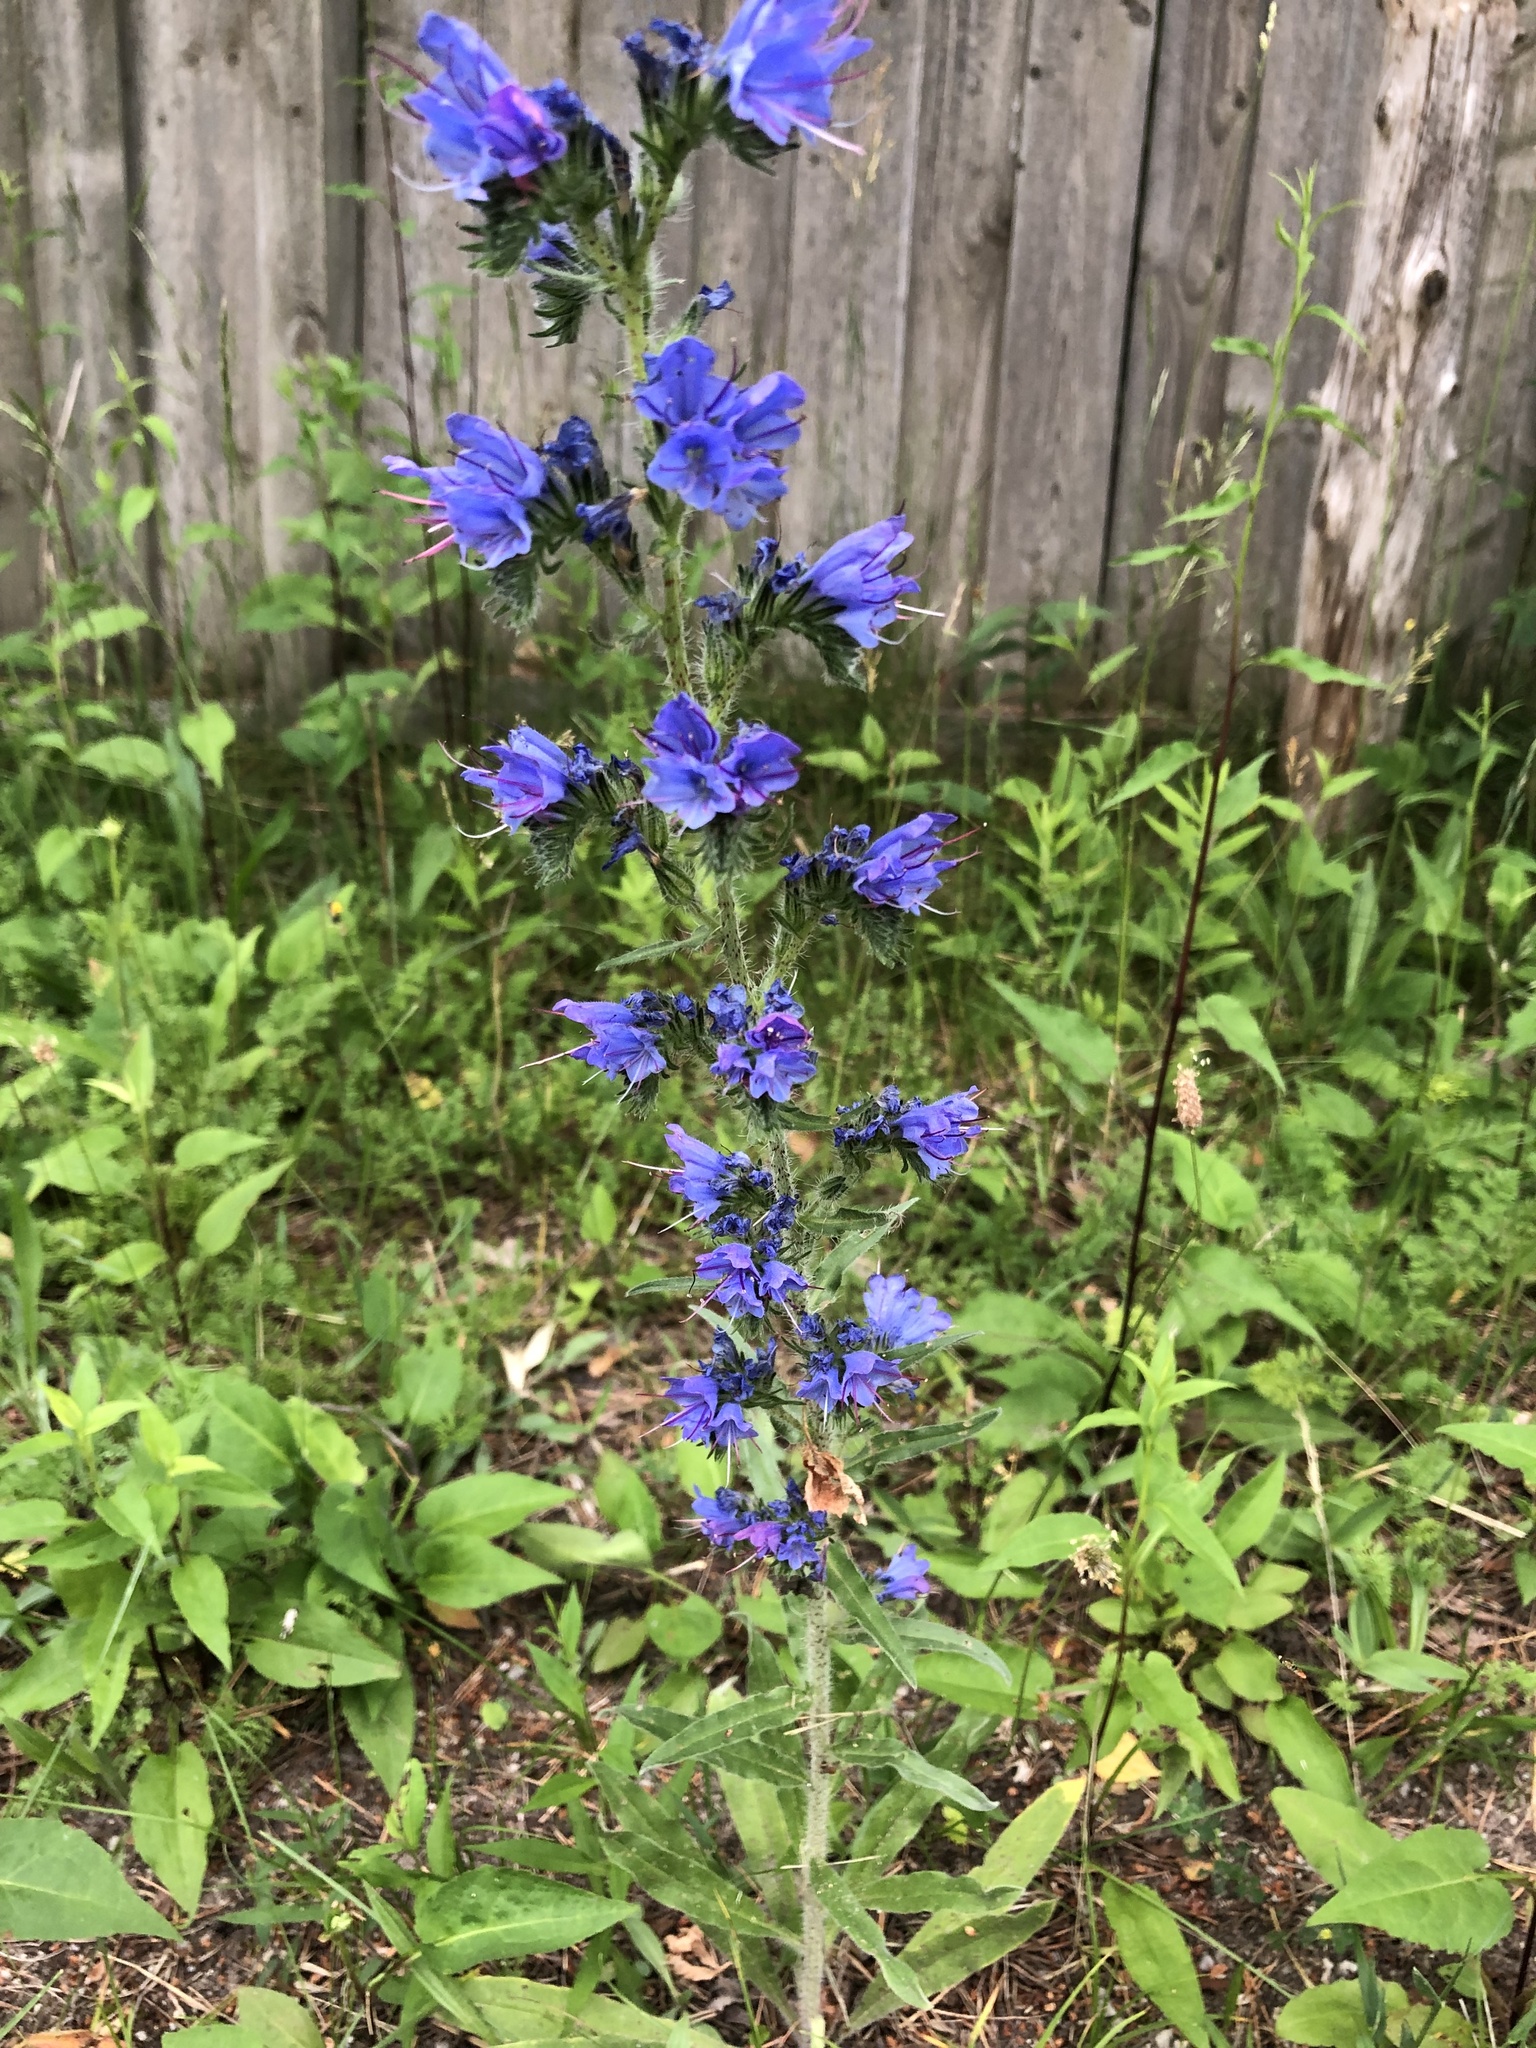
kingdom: Plantae
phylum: Tracheophyta
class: Magnoliopsida
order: Boraginales
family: Boraginaceae
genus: Echium
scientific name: Echium vulgare
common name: Common viper's bugloss
